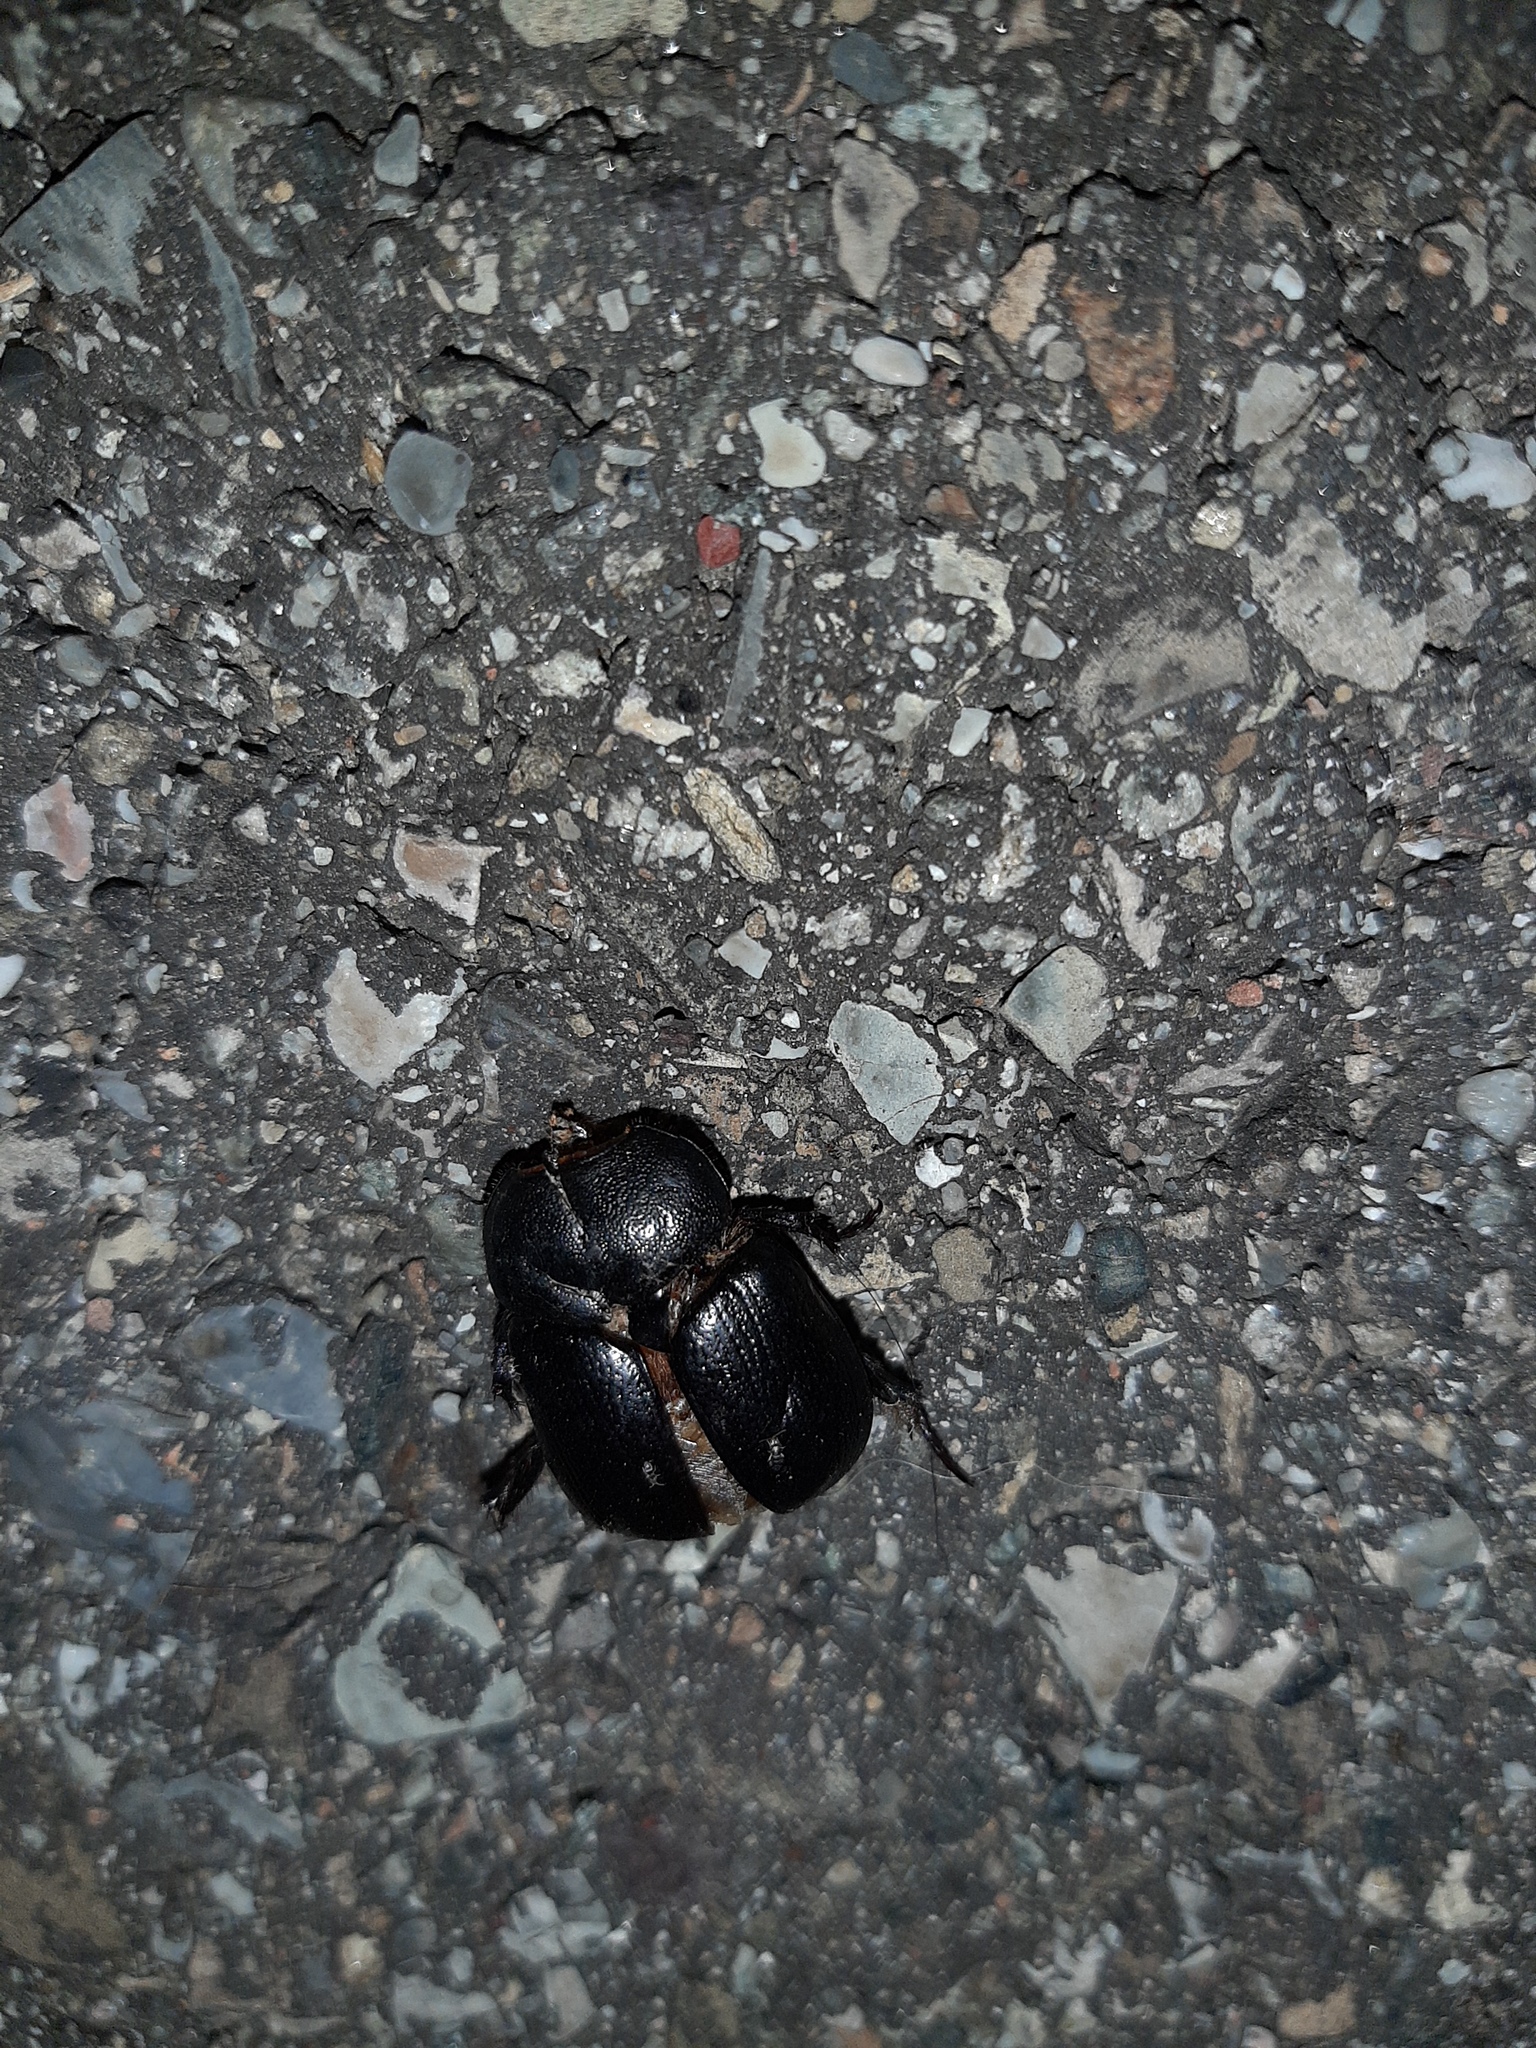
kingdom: Animalia
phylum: Arthropoda
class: Insecta
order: Coleoptera
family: Scarabaeidae
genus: Pentodon
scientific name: Pentodon bidens
